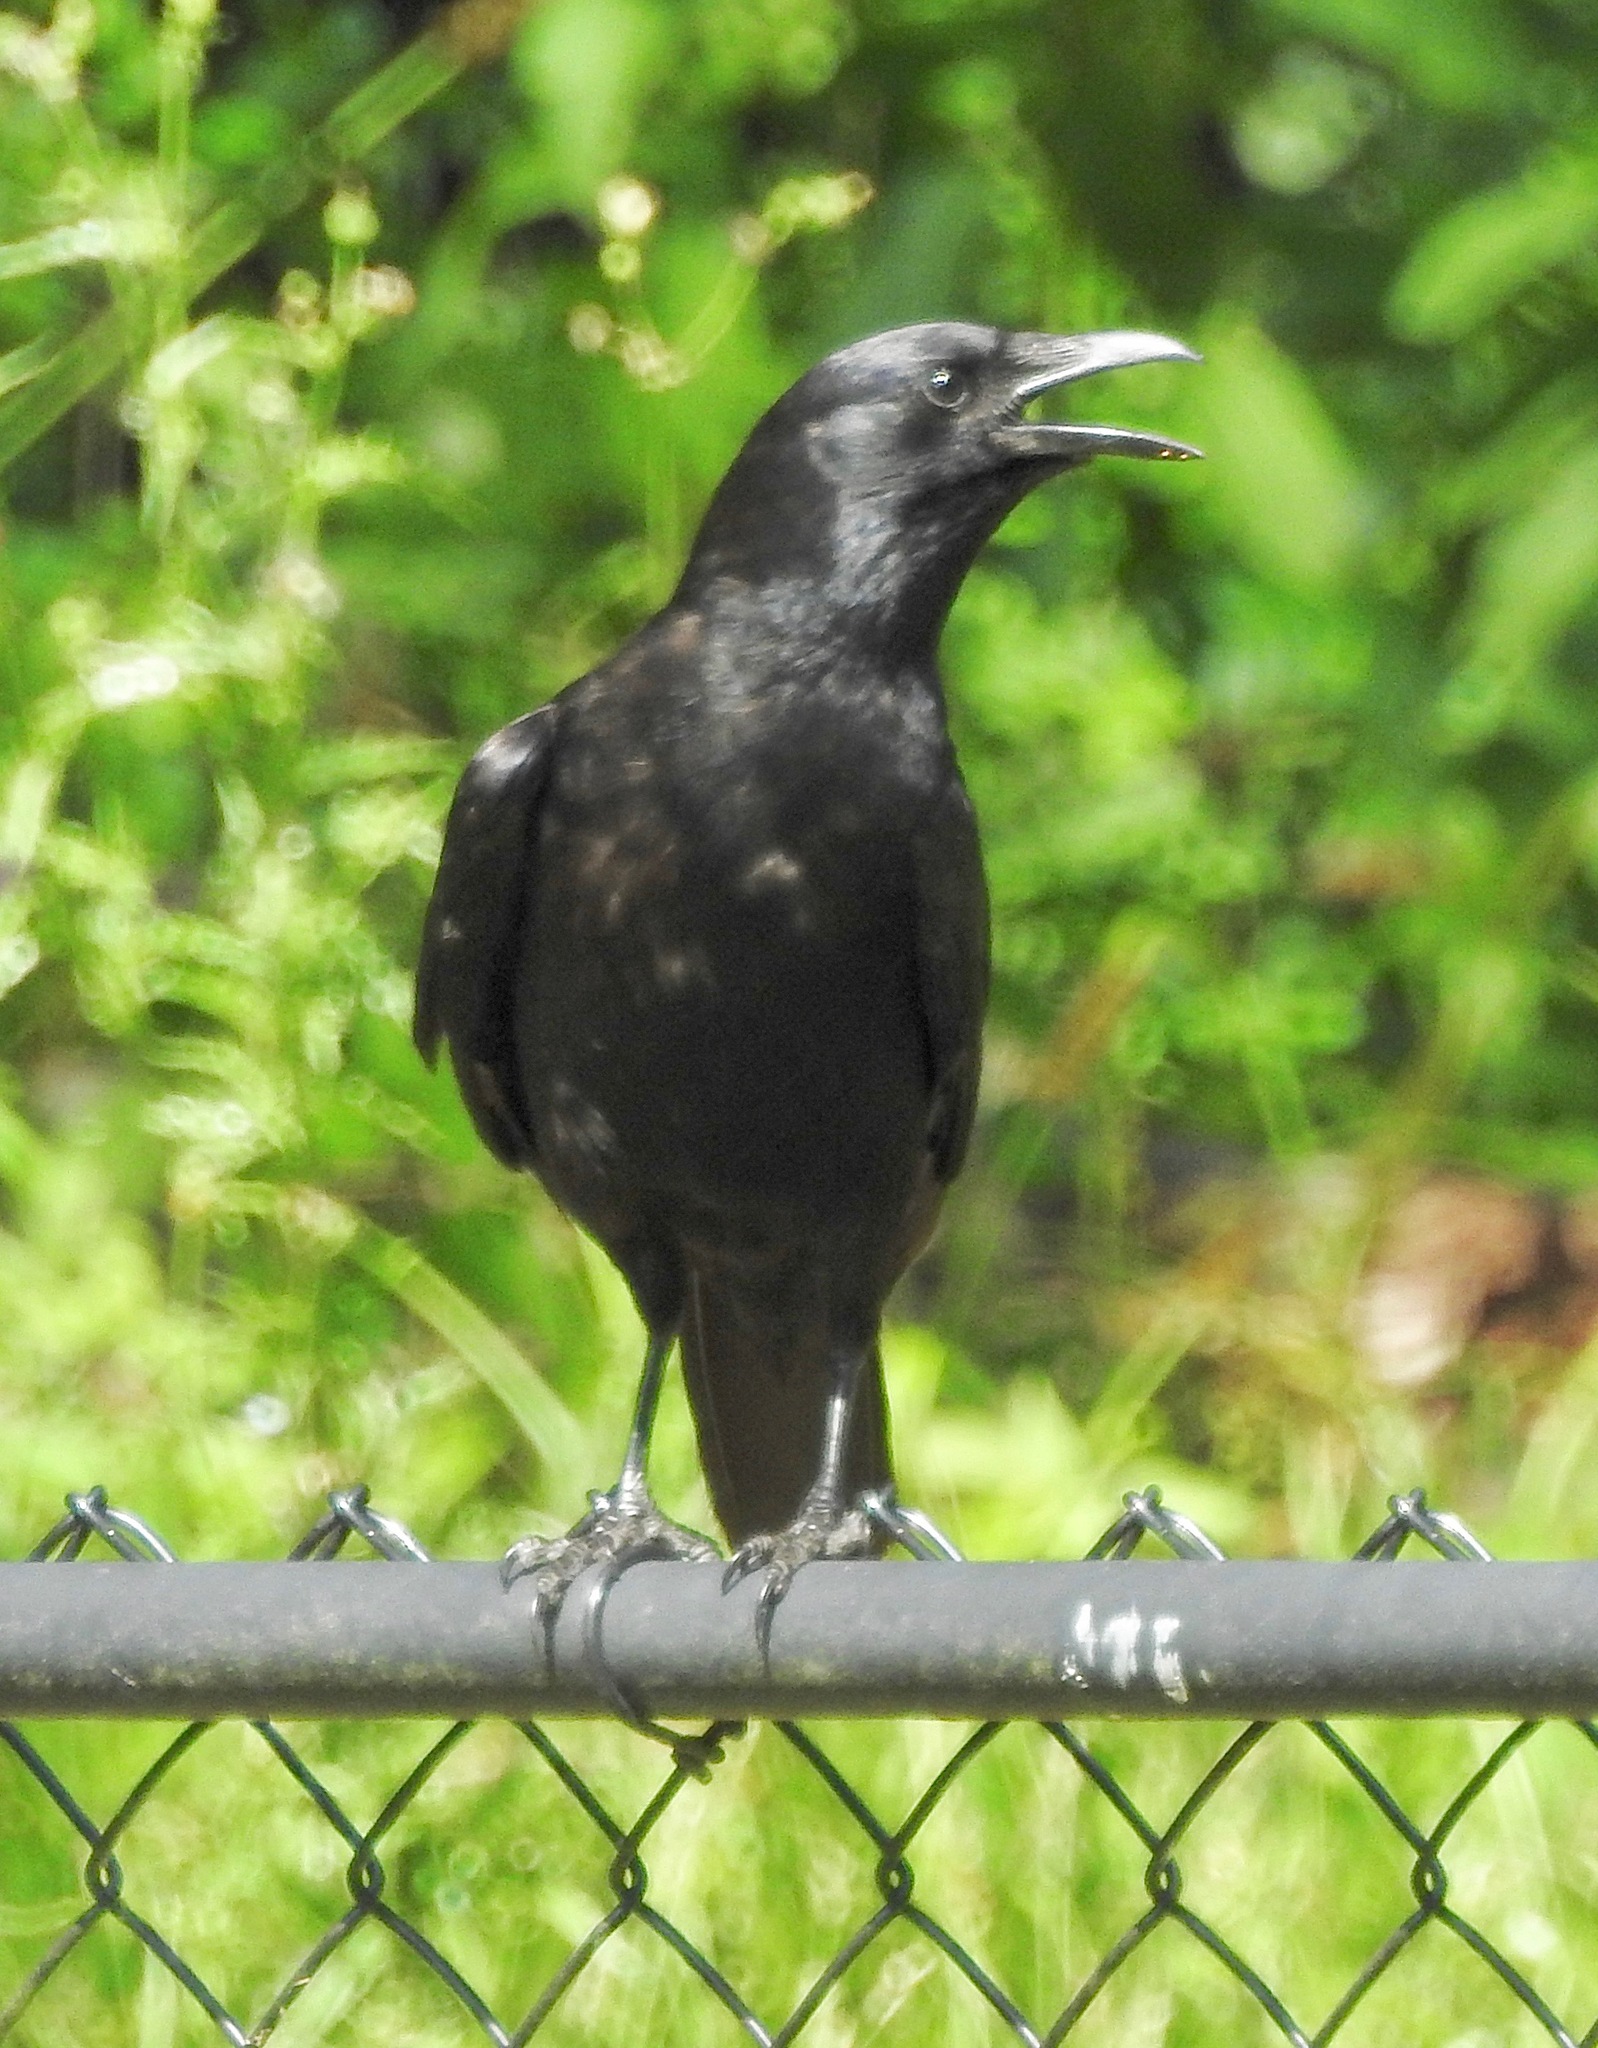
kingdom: Animalia
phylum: Chordata
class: Aves
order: Passeriformes
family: Corvidae
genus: Corvus
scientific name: Corvus ossifragus
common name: Fish crow
